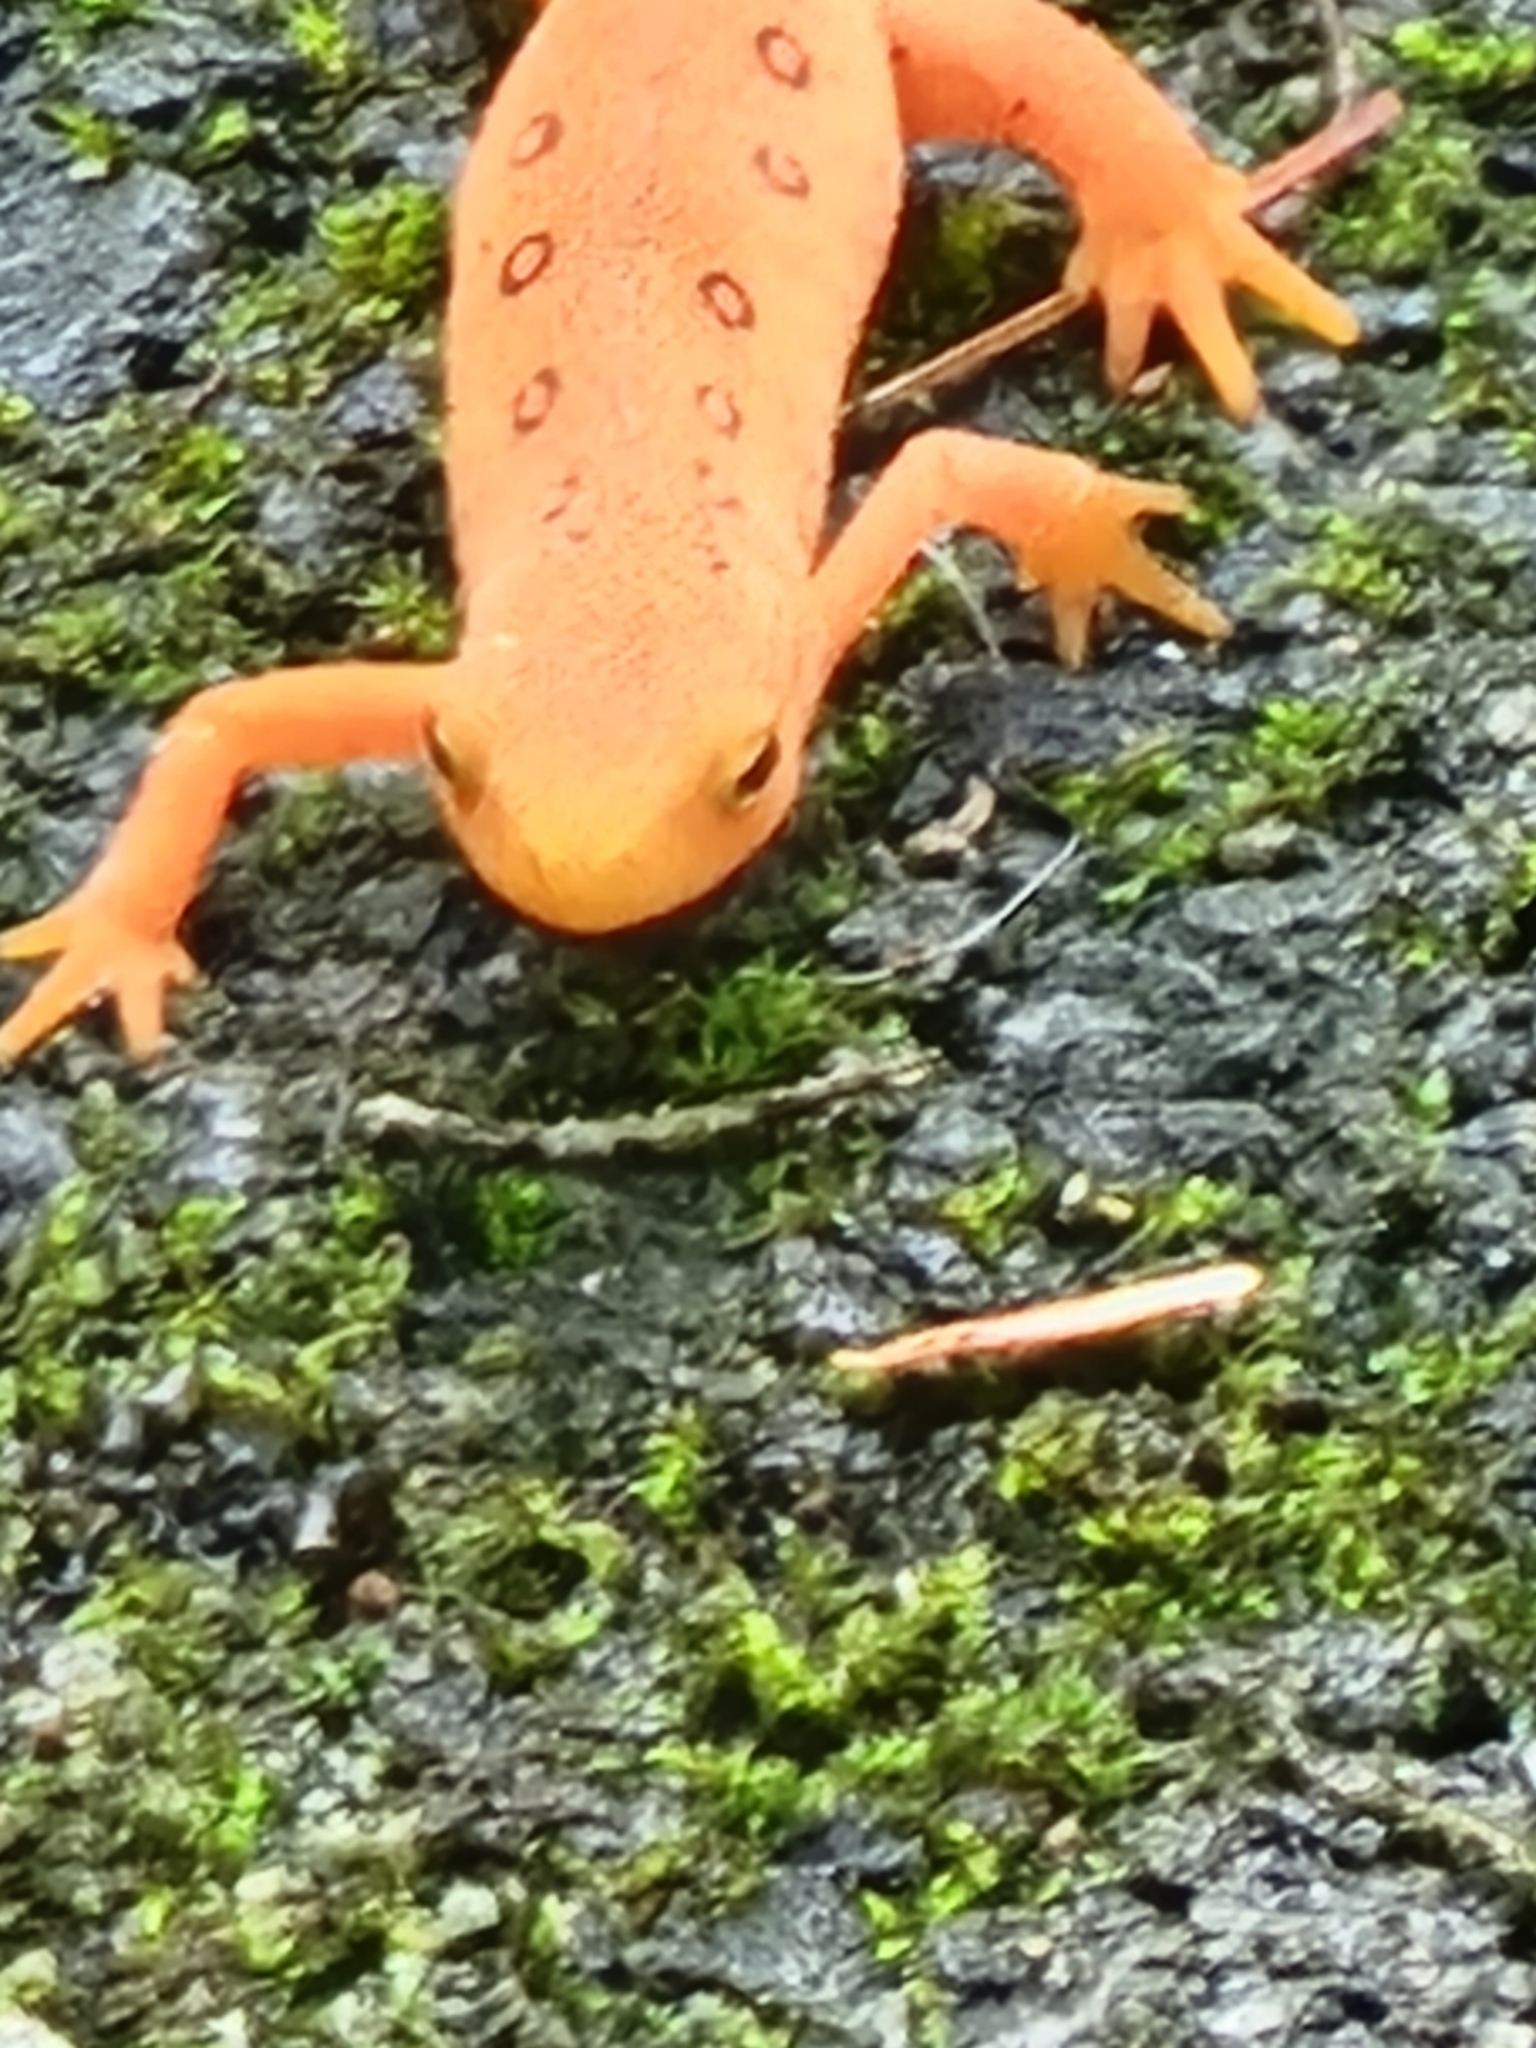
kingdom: Animalia
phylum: Chordata
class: Amphibia
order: Caudata
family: Salamandridae
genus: Notophthalmus
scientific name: Notophthalmus viridescens
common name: Eastern newt
